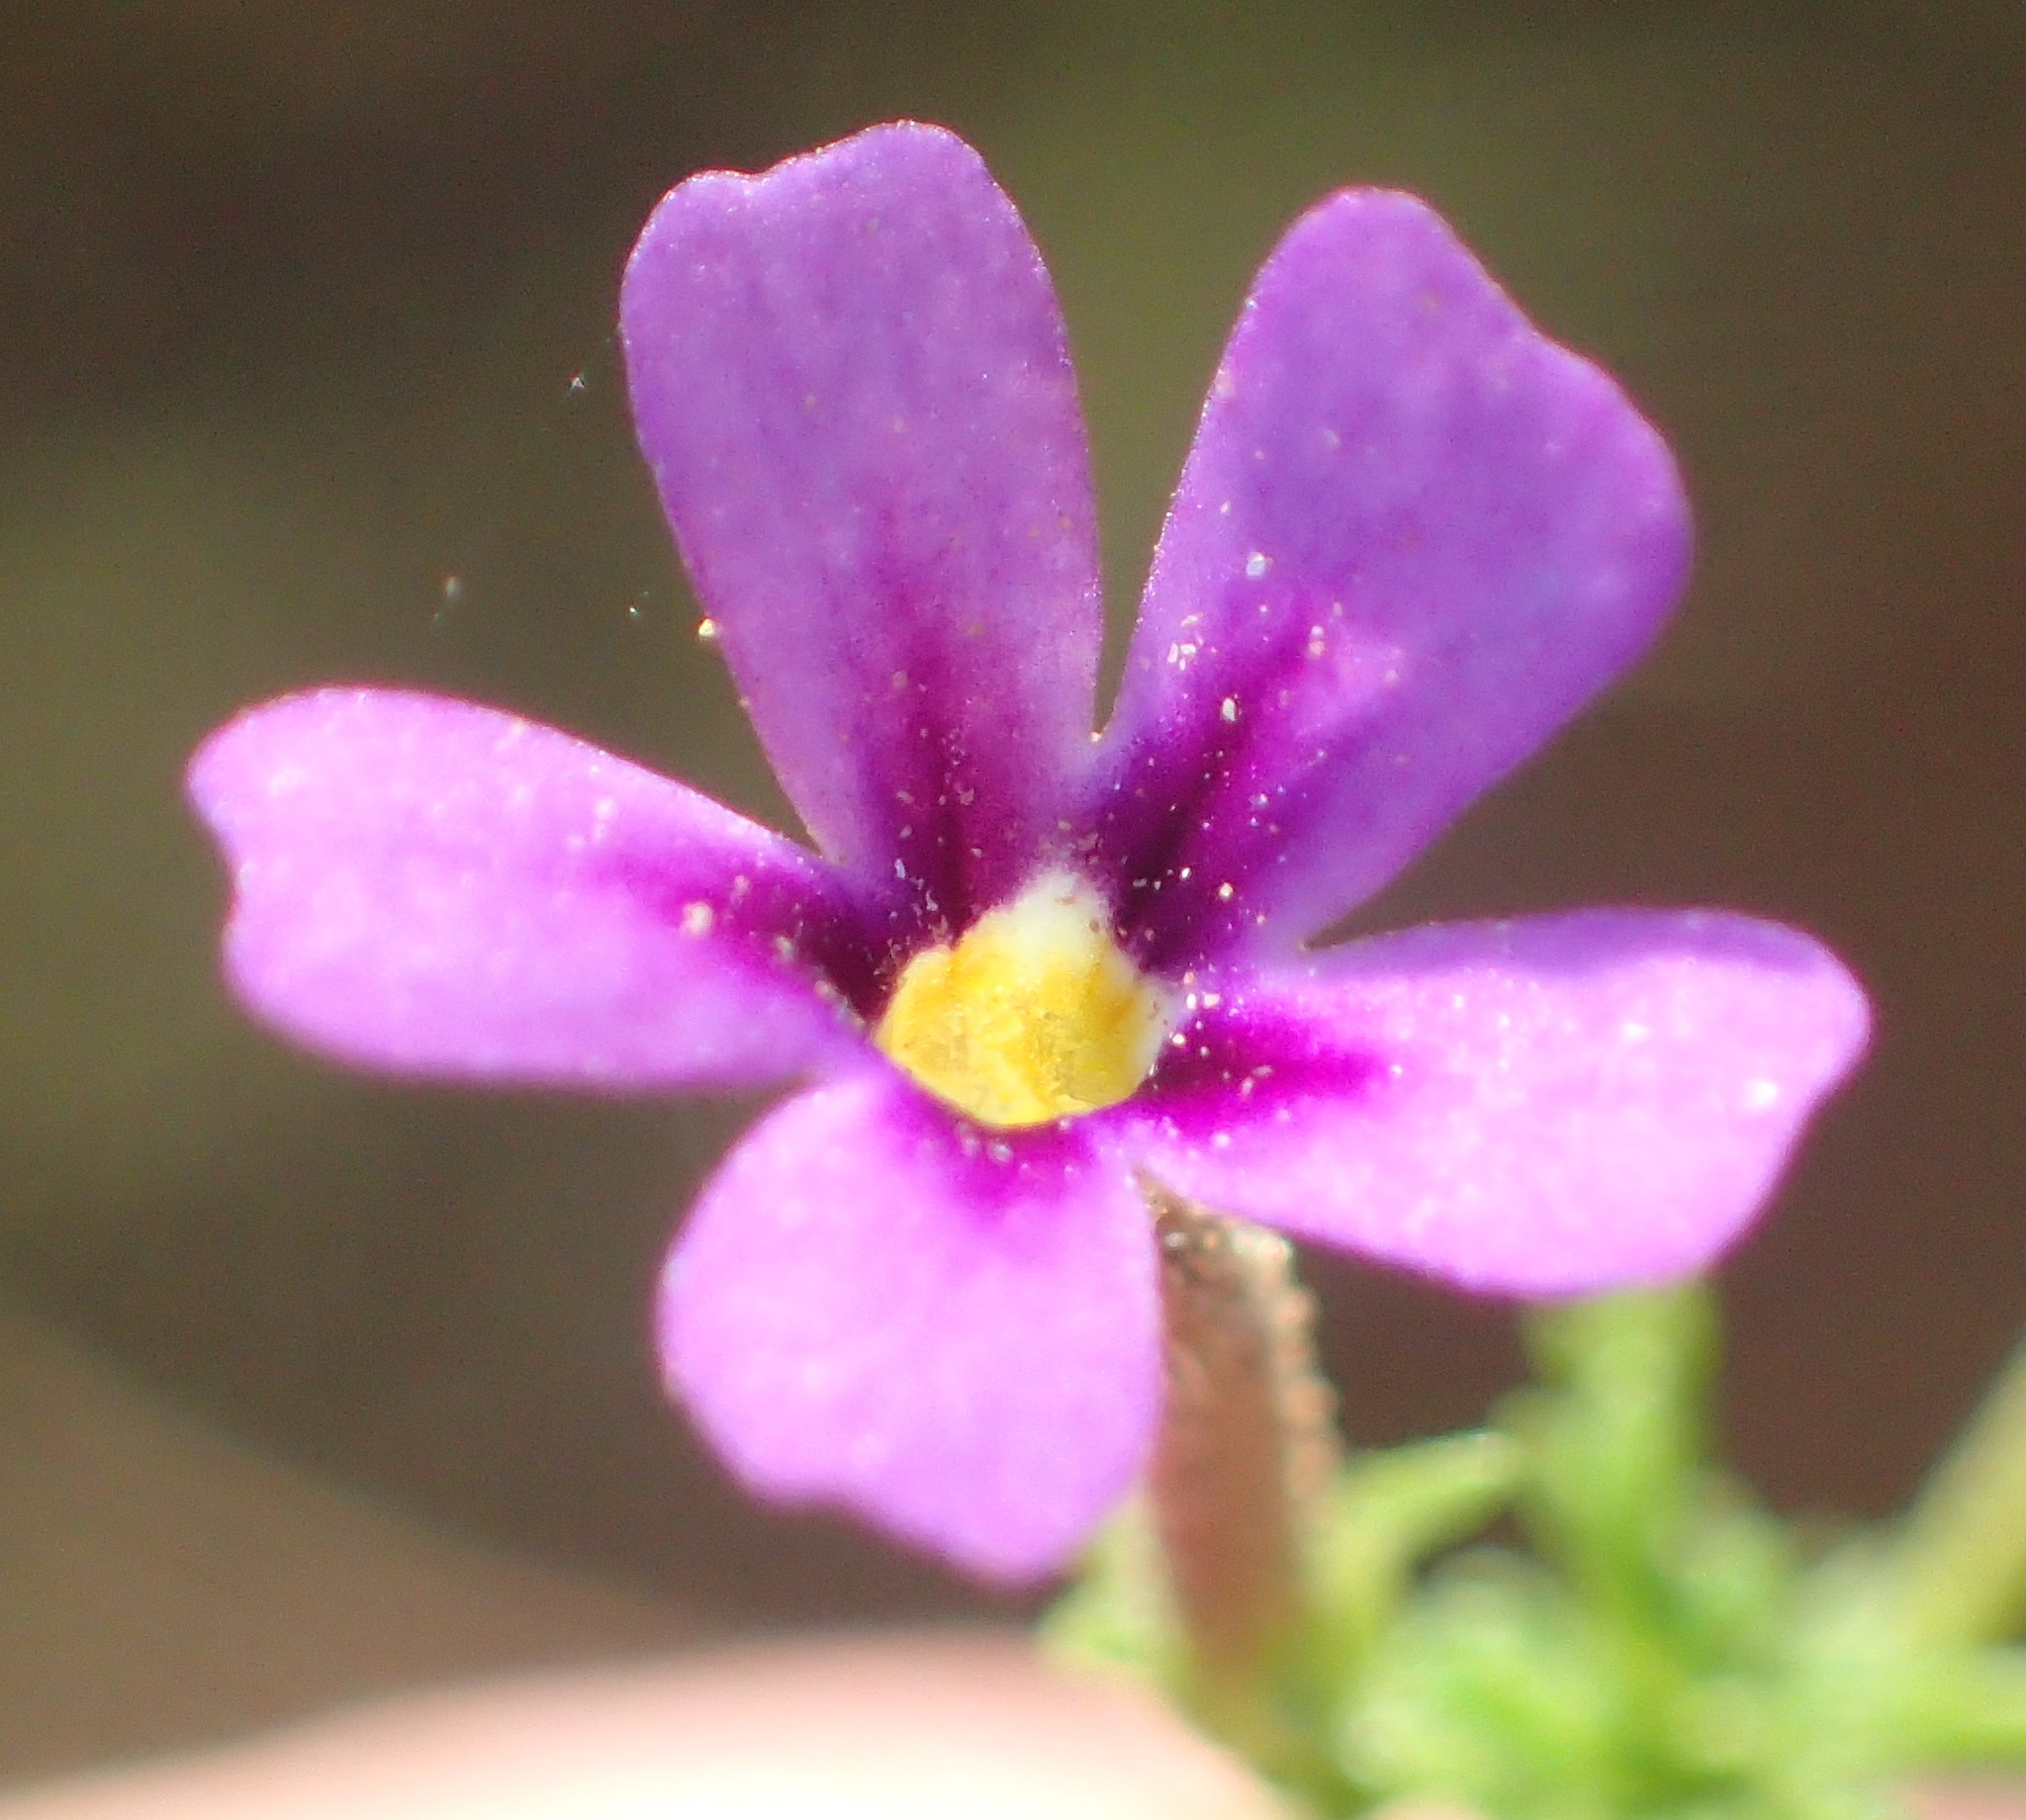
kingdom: Plantae
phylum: Tracheophyta
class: Magnoliopsida
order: Lamiales
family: Scrophulariaceae
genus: Jamesbrittenia
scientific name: Jamesbrittenia tenuifolia
